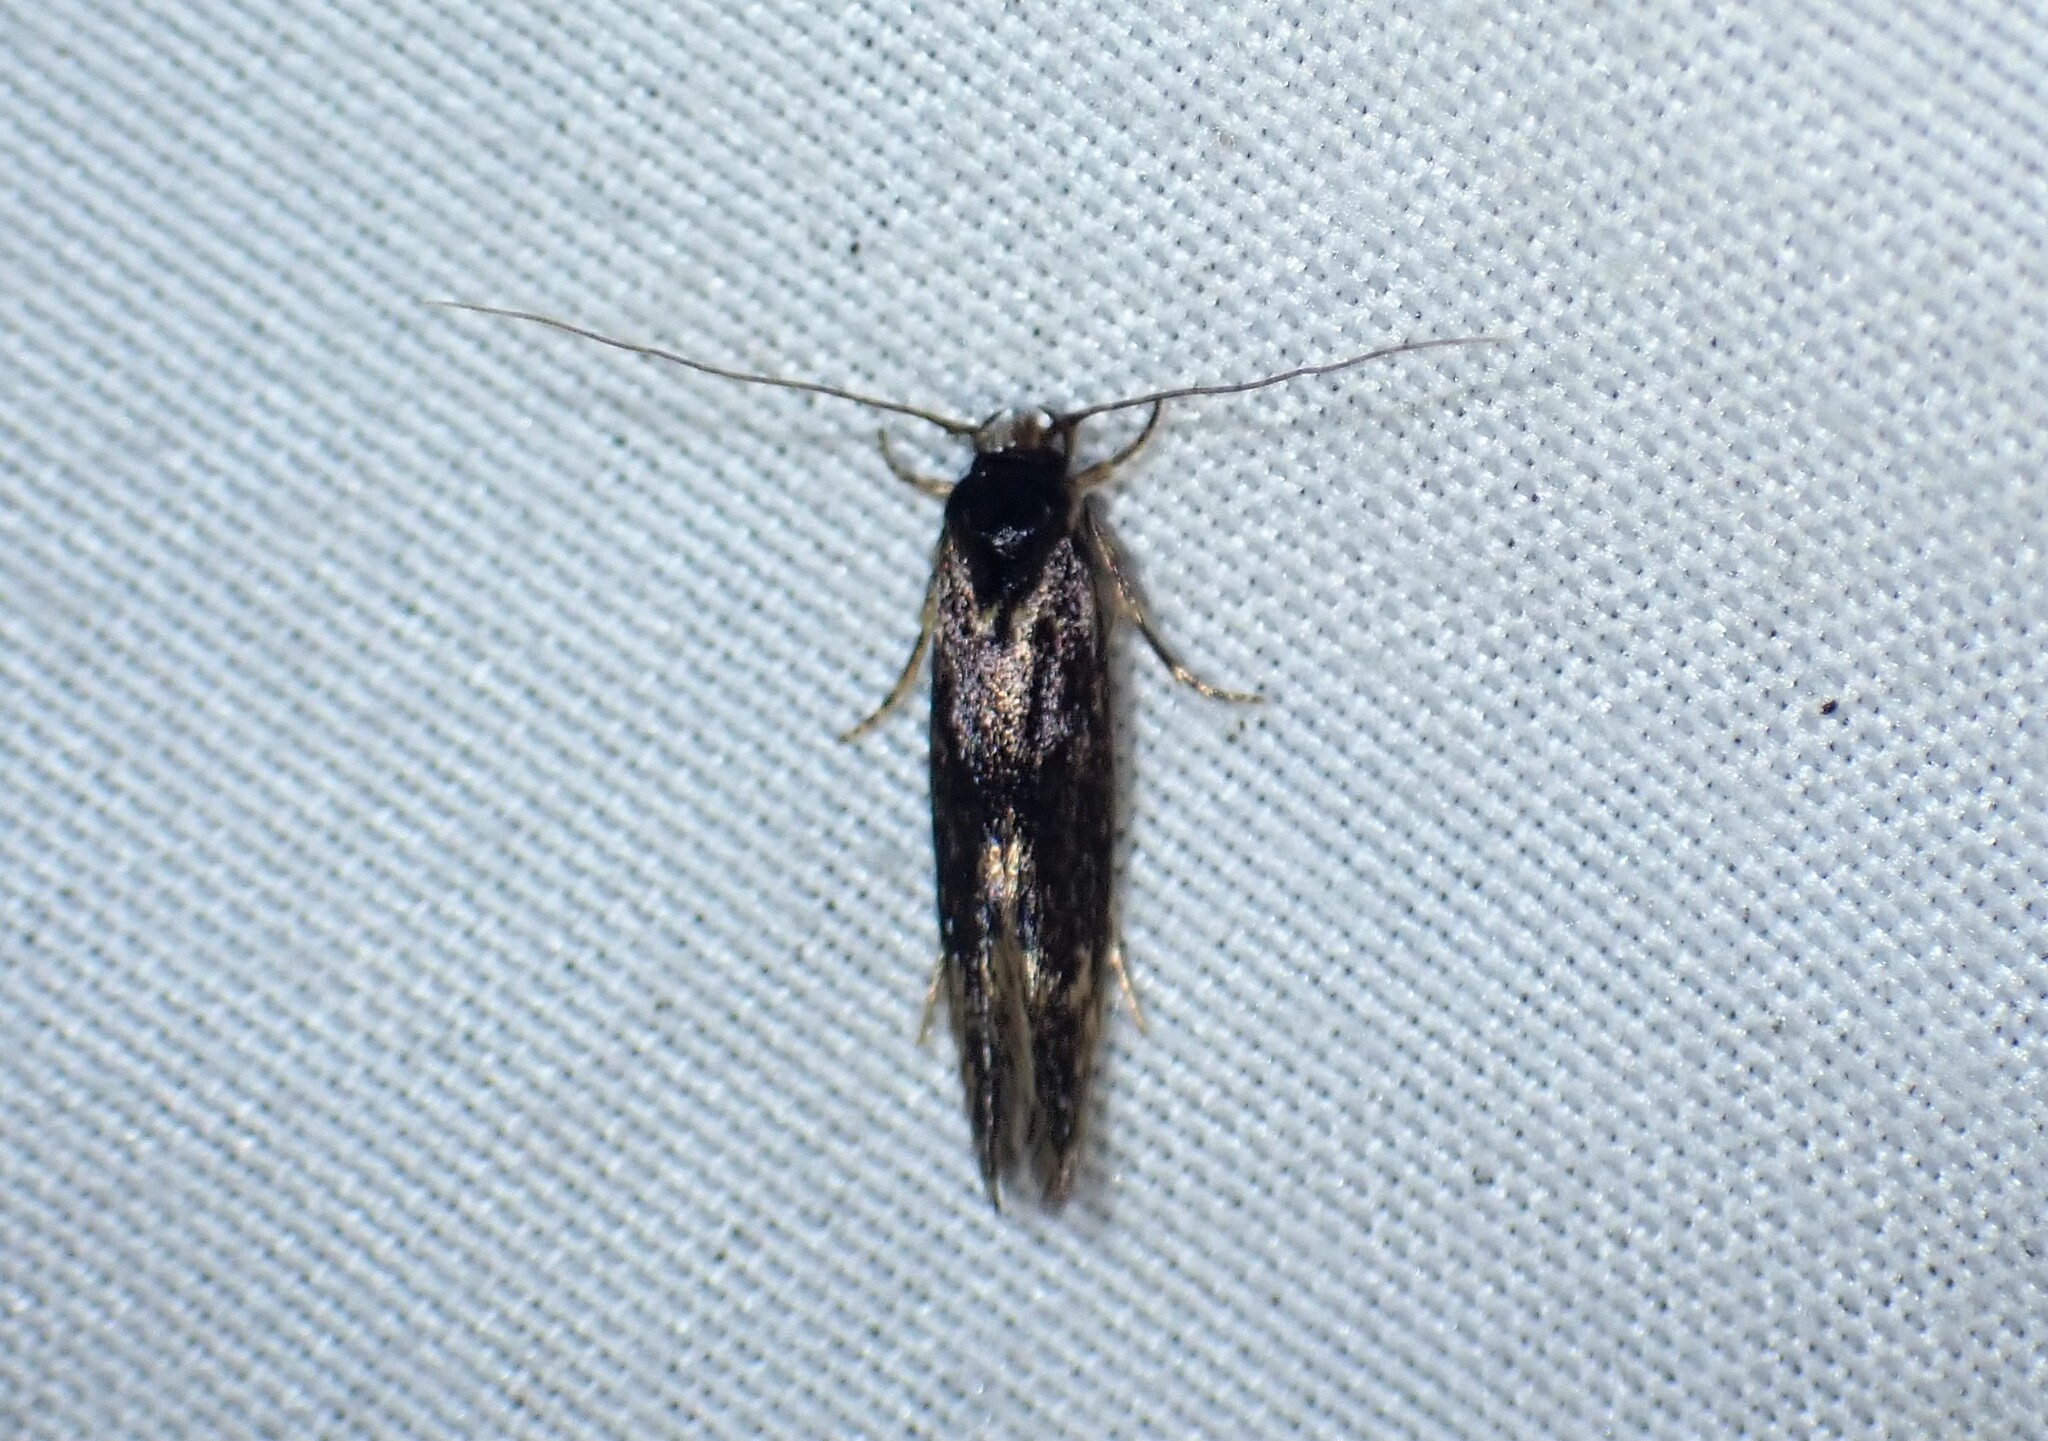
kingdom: Animalia
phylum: Arthropoda
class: Insecta
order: Lepidoptera
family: Tineidae
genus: Opogona
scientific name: Opogona omoscopa
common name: Moth
